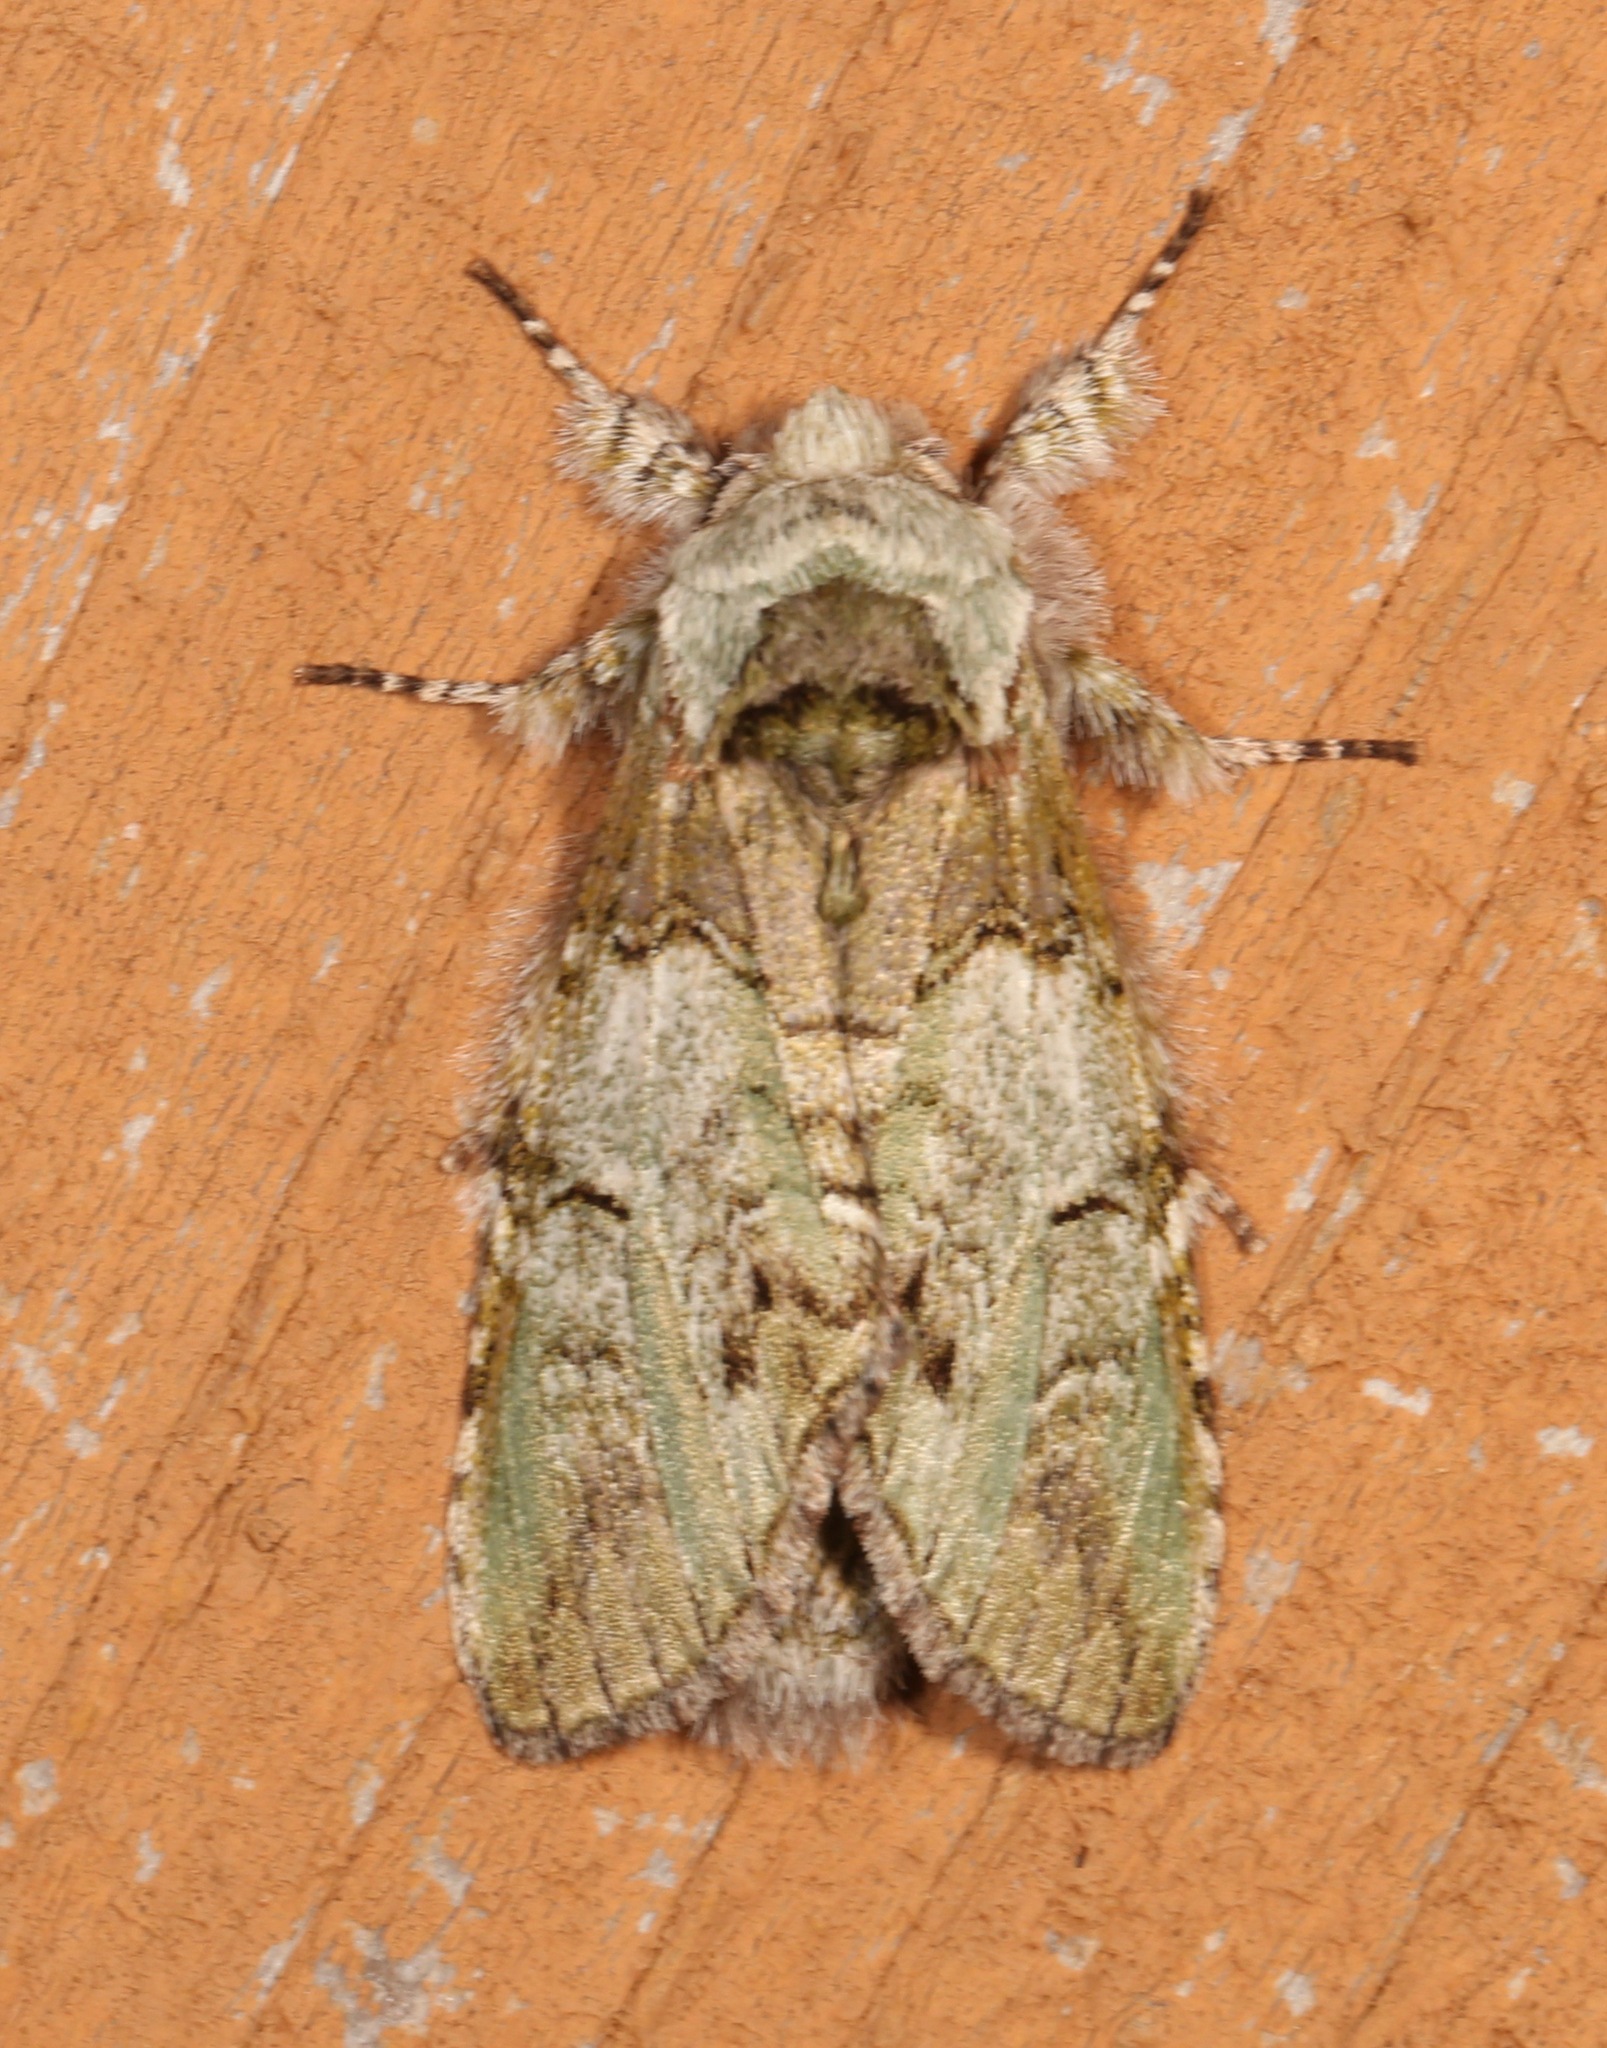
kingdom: Animalia
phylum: Arthropoda
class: Insecta
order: Lepidoptera
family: Notodontidae
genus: Macrurocampa
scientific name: Macrurocampa marthesia
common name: Mottled prominent
